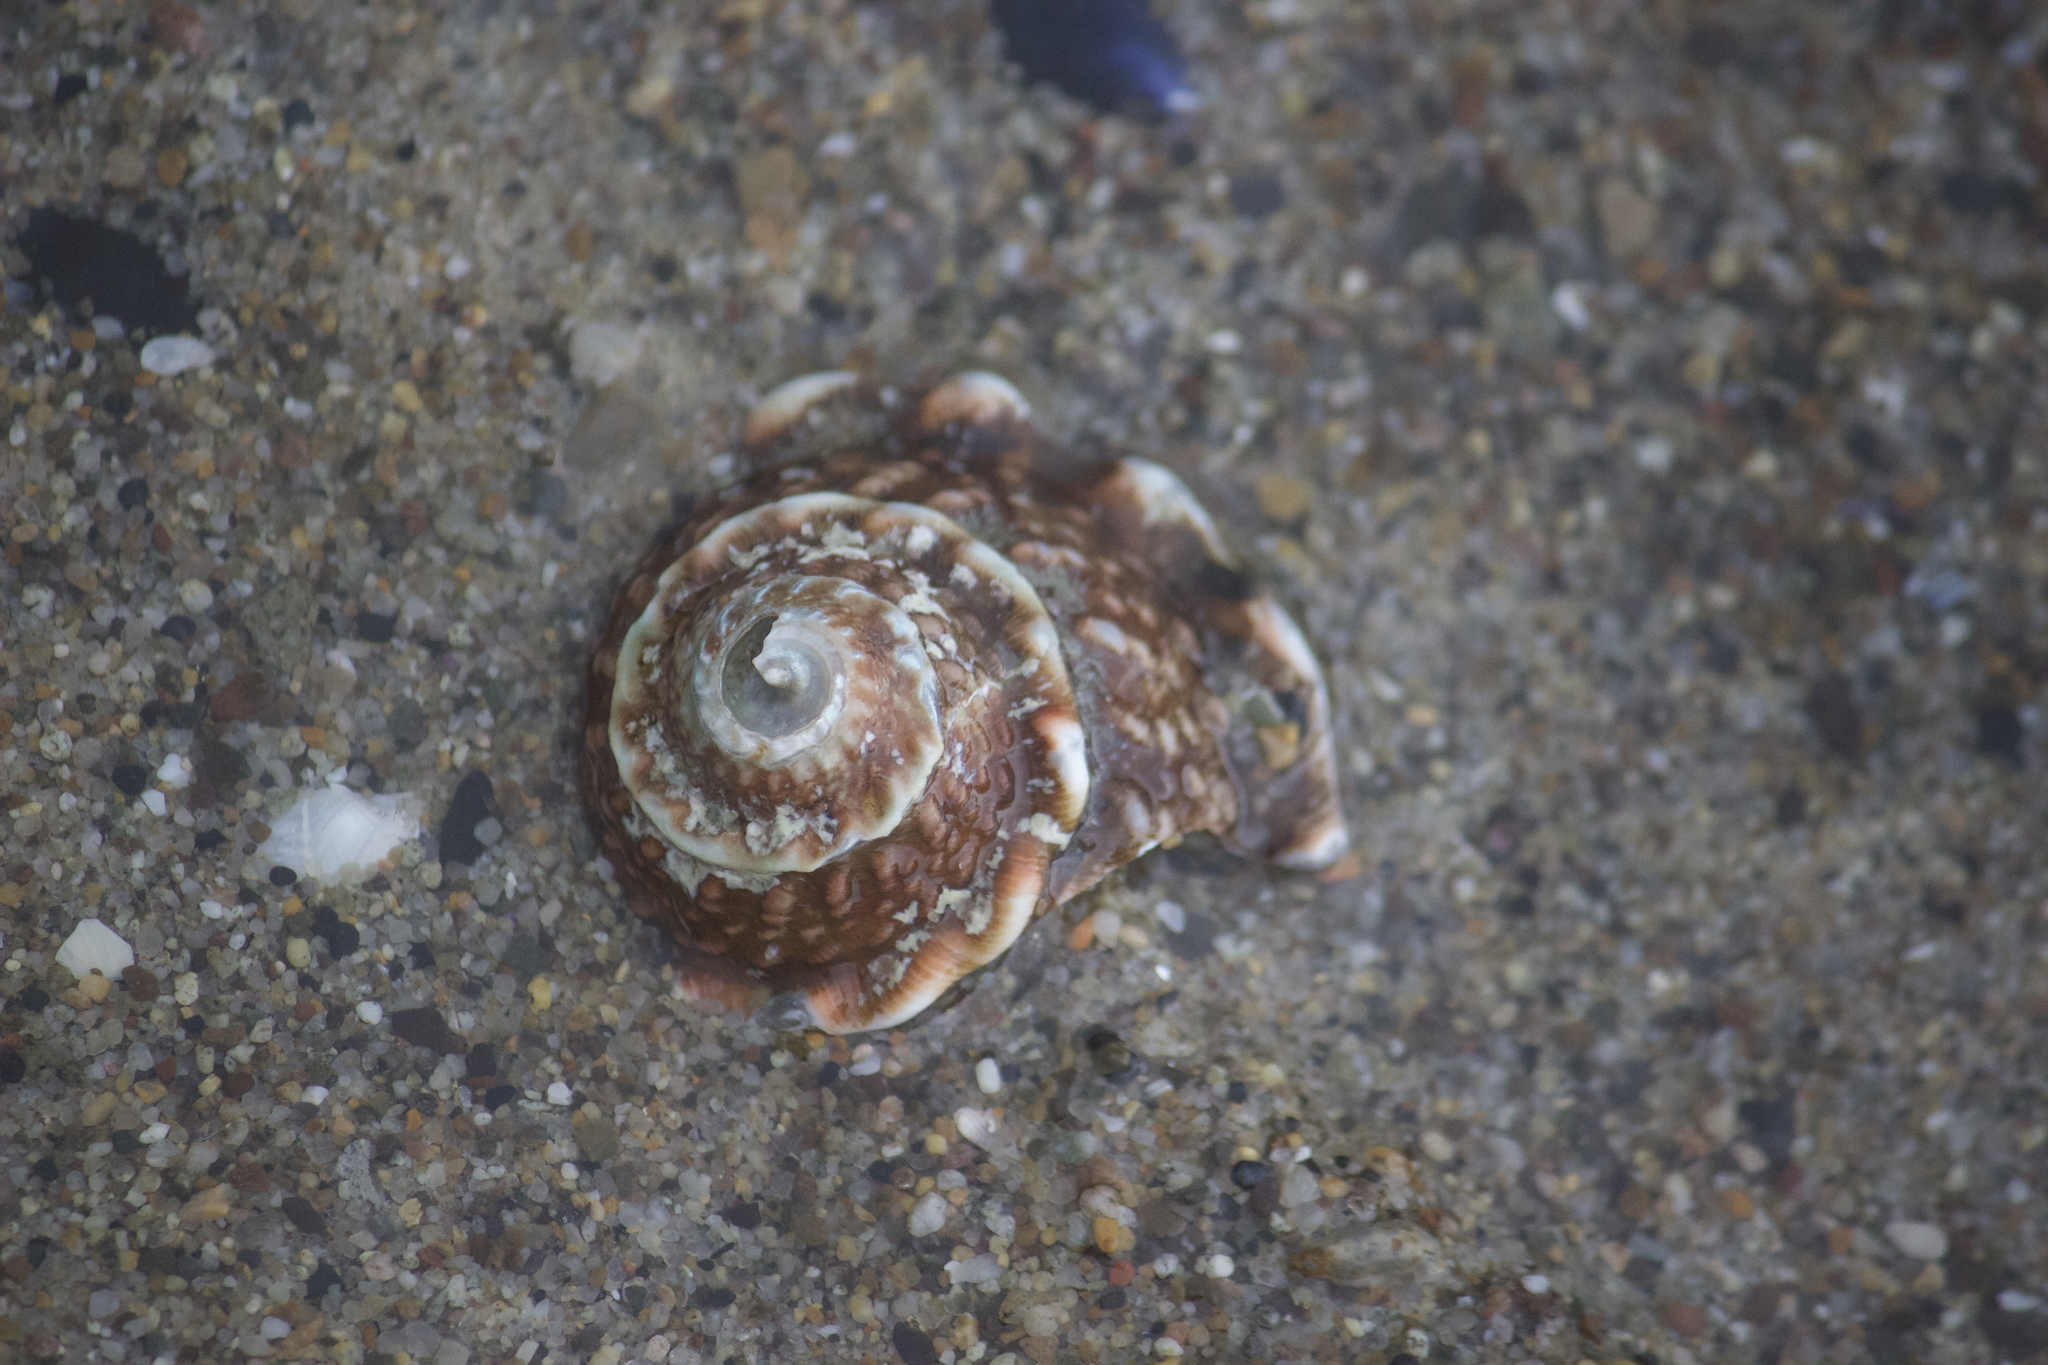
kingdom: Animalia
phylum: Mollusca
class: Gastropoda
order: Trochida
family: Turbinidae
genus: Megastraea
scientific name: Megastraea undosa
